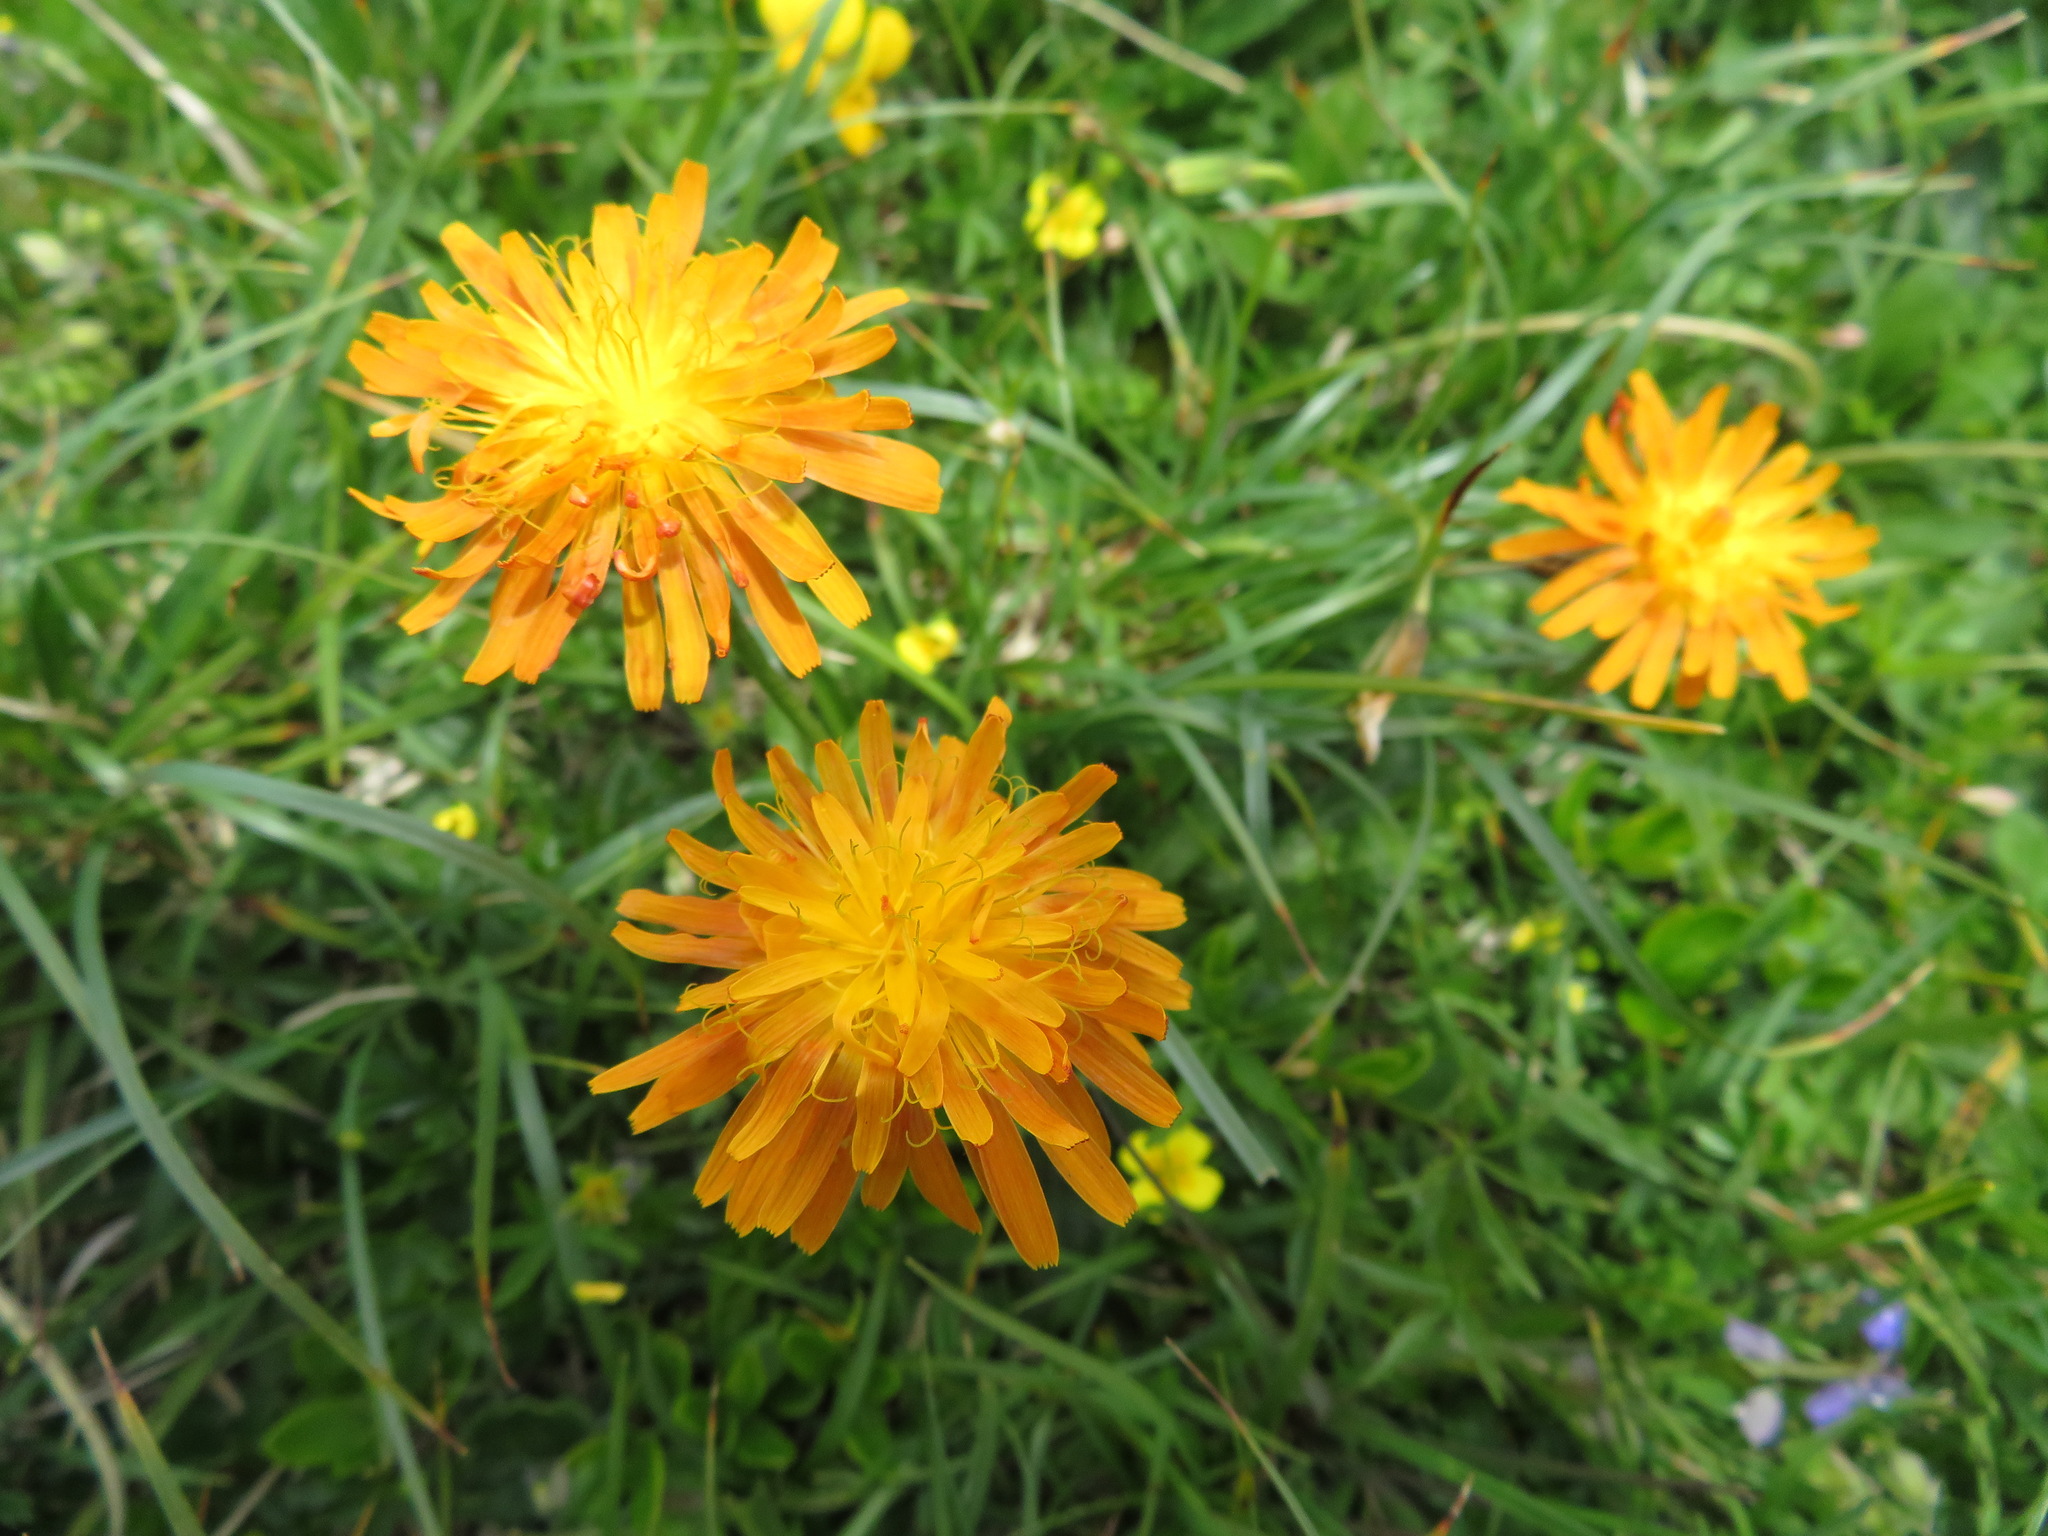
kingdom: Plantae
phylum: Tracheophyta
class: Magnoliopsida
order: Asterales
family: Asteraceae
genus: Crepis
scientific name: Crepis aurea
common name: Golden hawk's-beard
